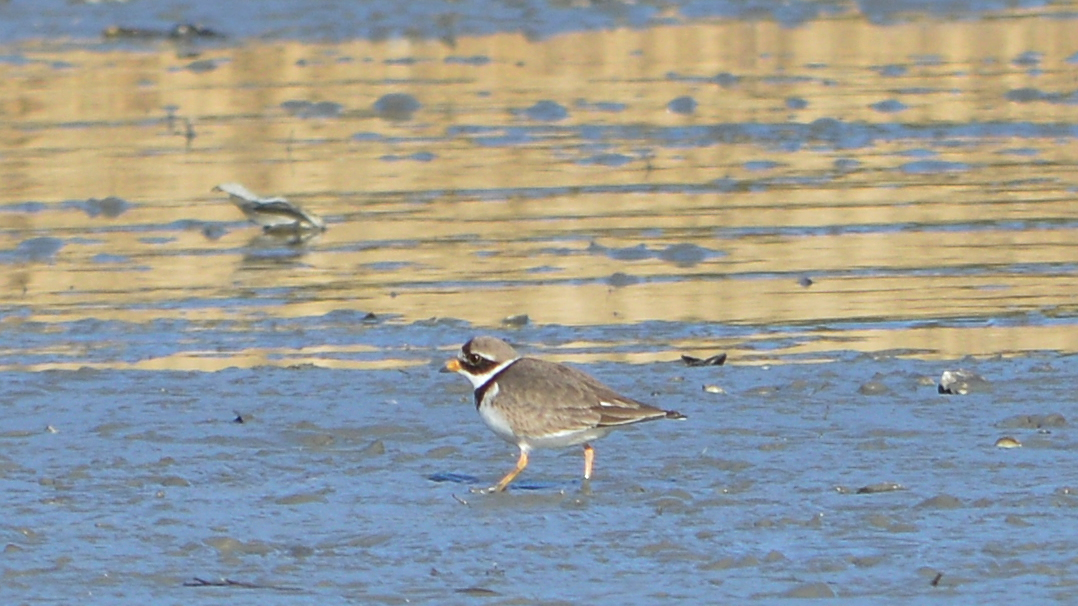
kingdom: Animalia
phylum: Chordata
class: Aves
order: Charadriiformes
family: Charadriidae
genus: Charadrius
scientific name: Charadrius hiaticula
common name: Common ringed plover
